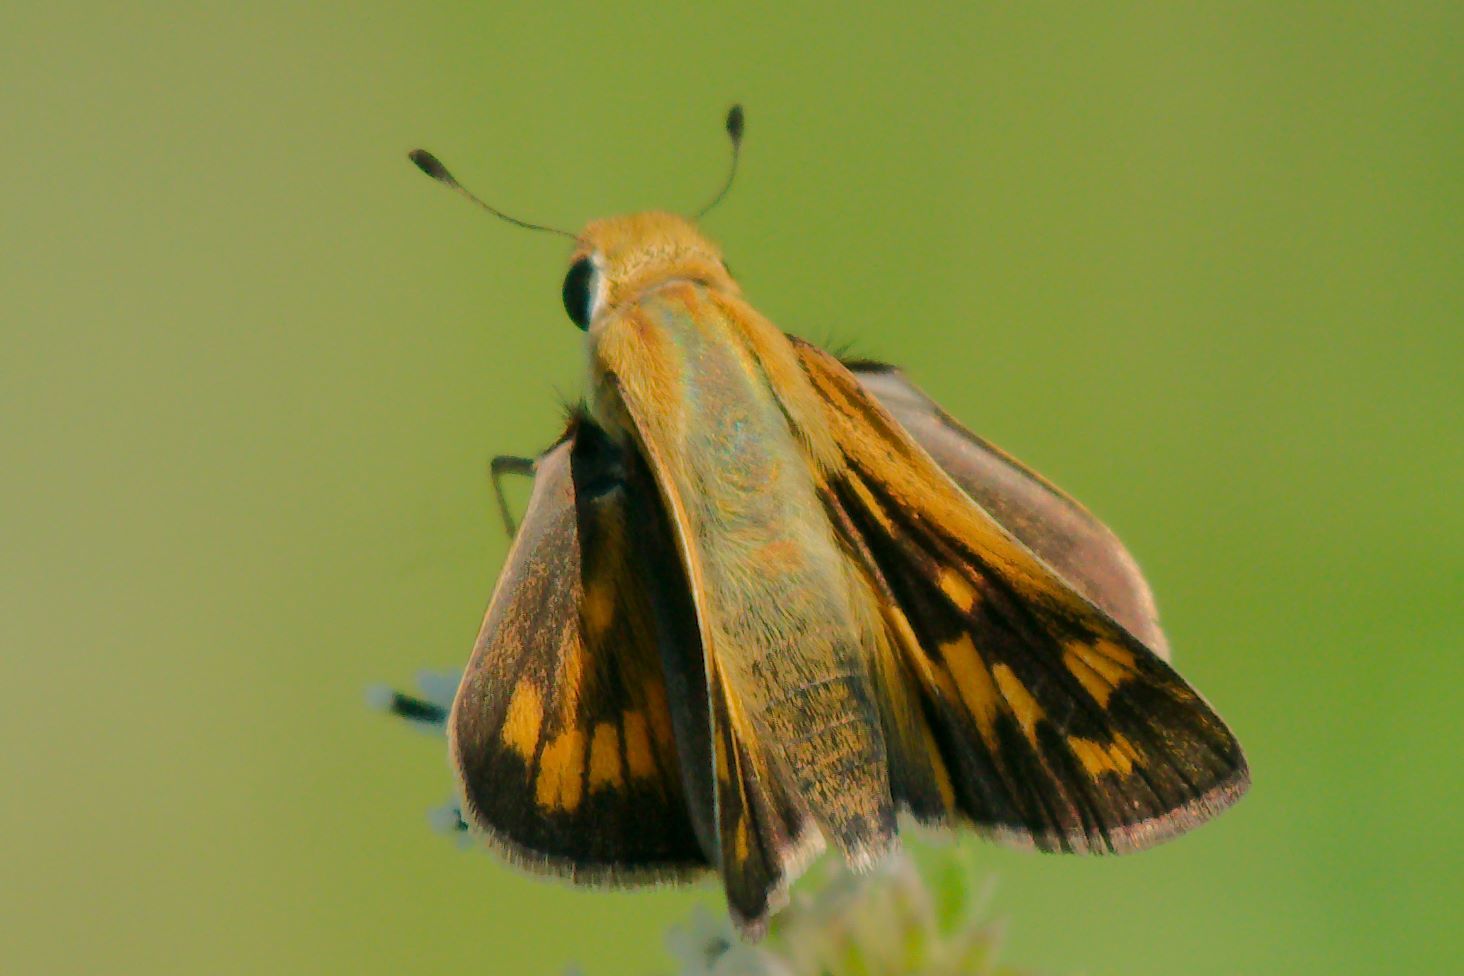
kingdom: Animalia
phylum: Arthropoda
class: Insecta
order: Lepidoptera
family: Hesperiidae
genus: Hylephila
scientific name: Hylephila phyleus
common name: Fiery skipper
